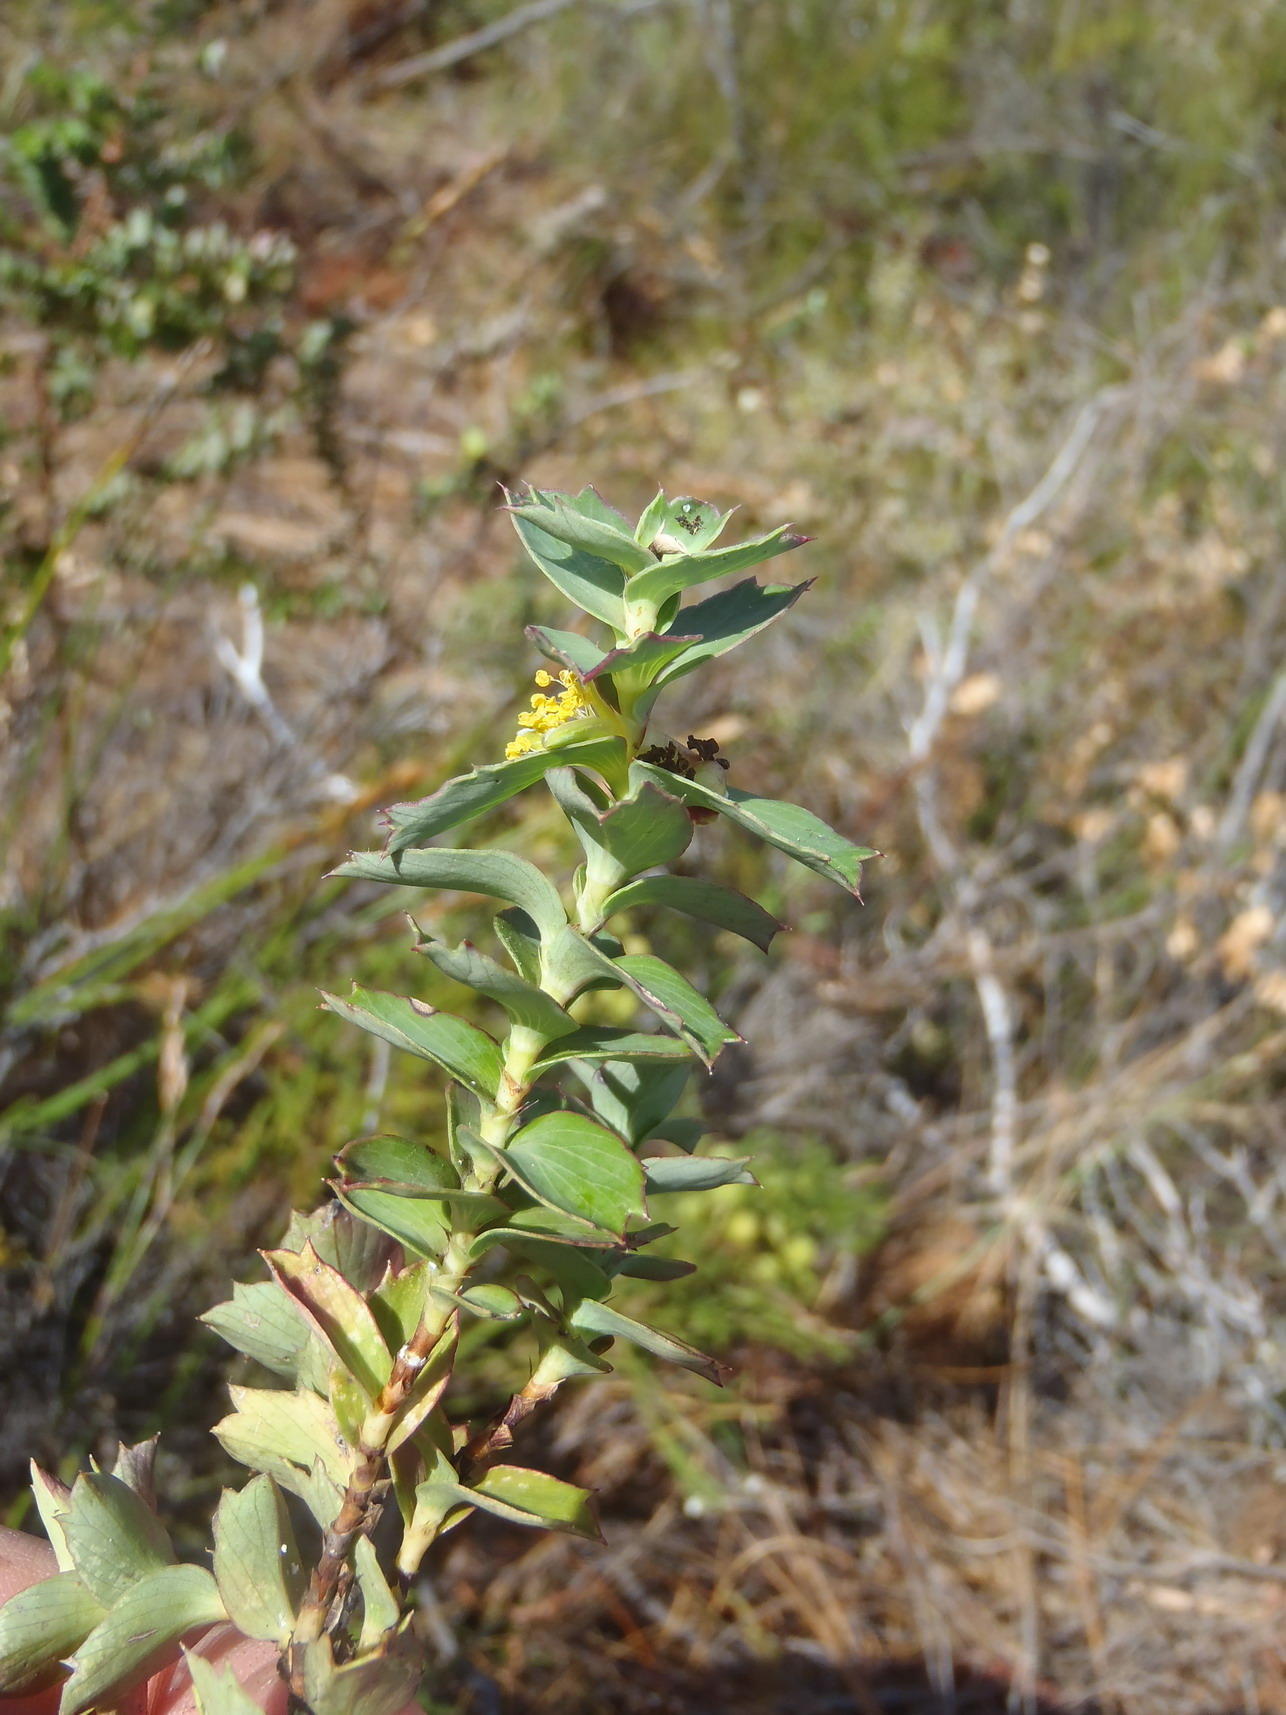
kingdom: Plantae
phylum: Tracheophyta
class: Magnoliopsida
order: Rosales
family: Rosaceae
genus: Cliffortia
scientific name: Cliffortia ilicifolia
